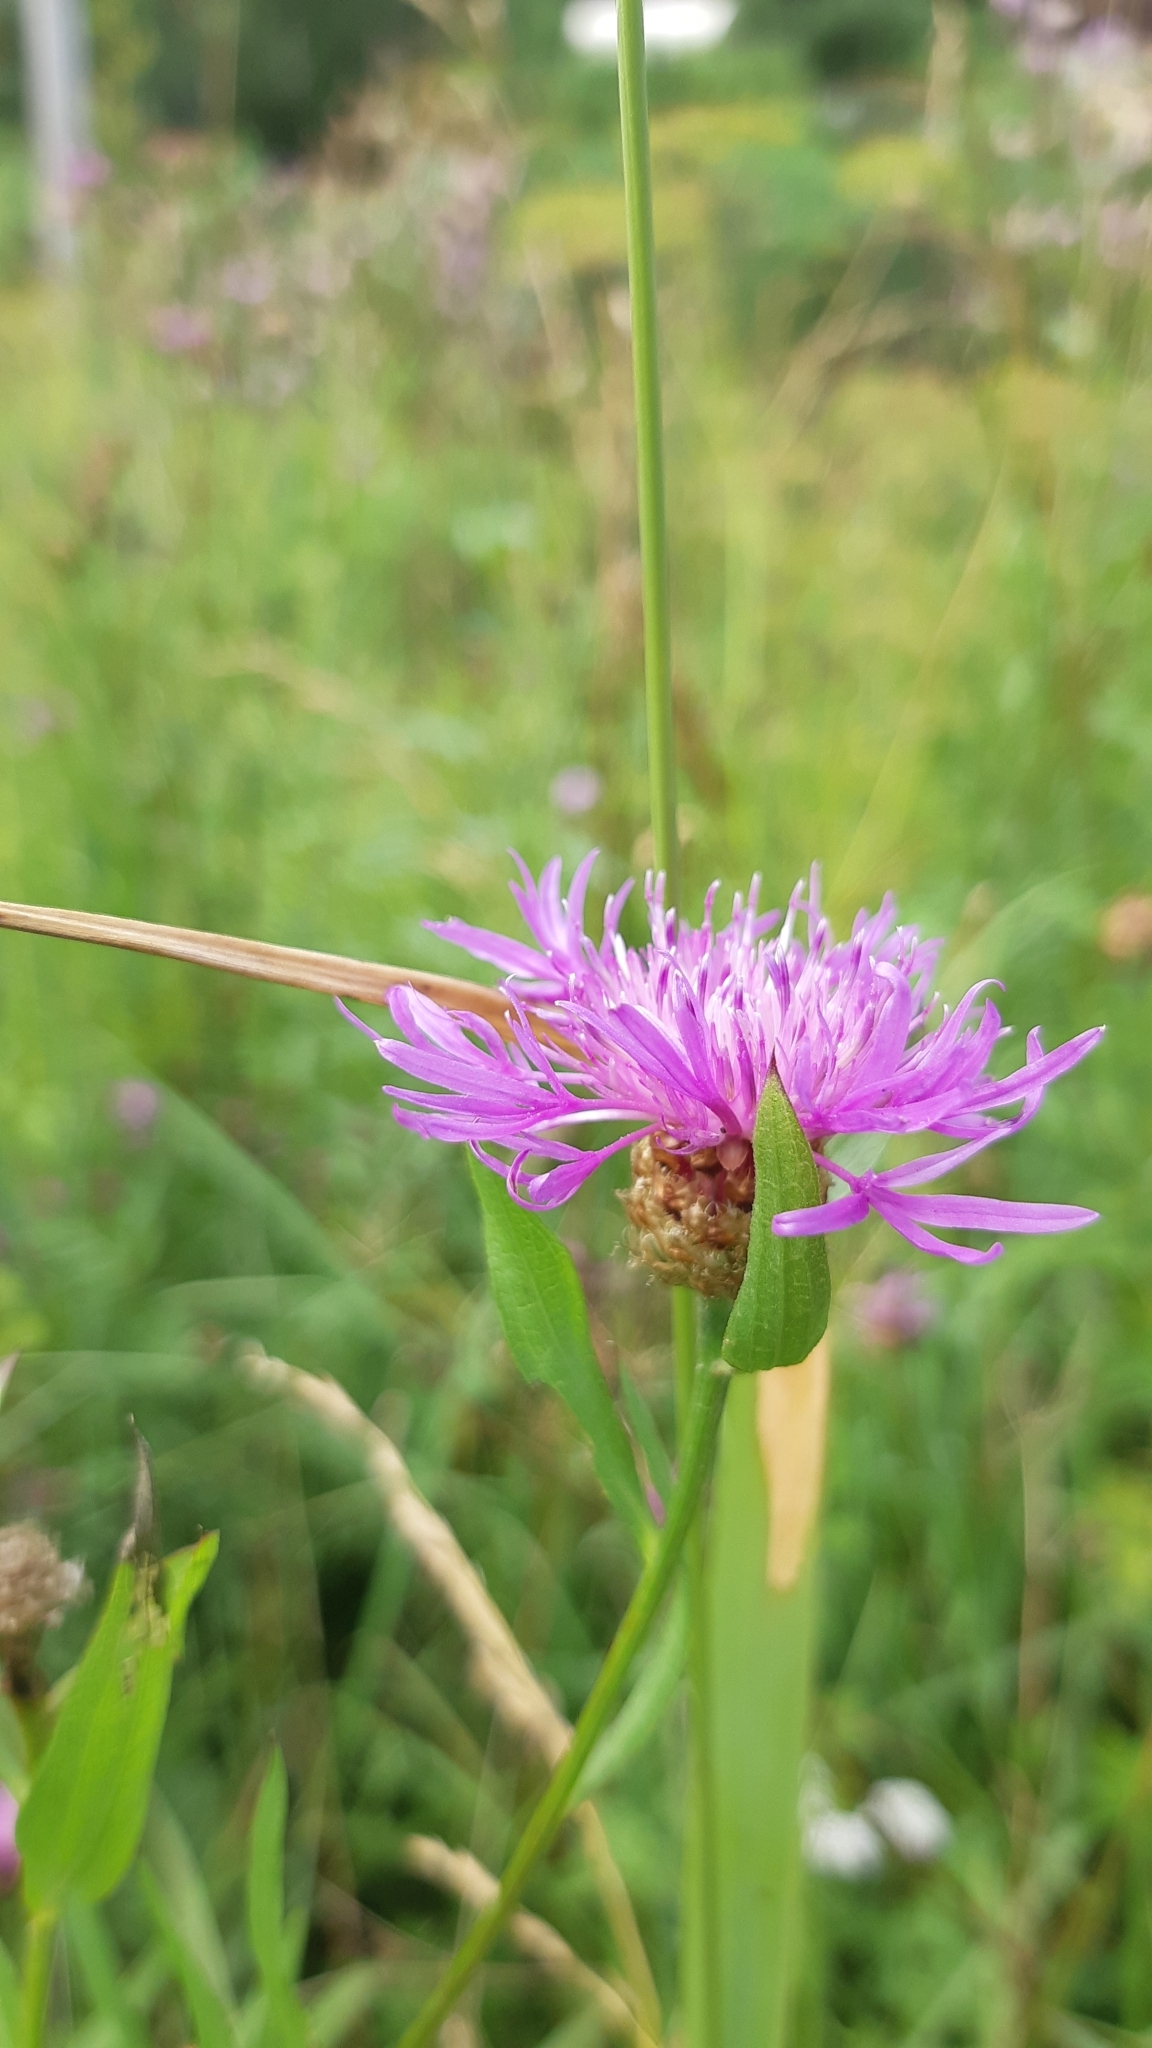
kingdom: Plantae
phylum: Tracheophyta
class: Magnoliopsida
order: Asterales
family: Asteraceae
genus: Centaurea
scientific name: Centaurea jacea
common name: Brown knapweed
